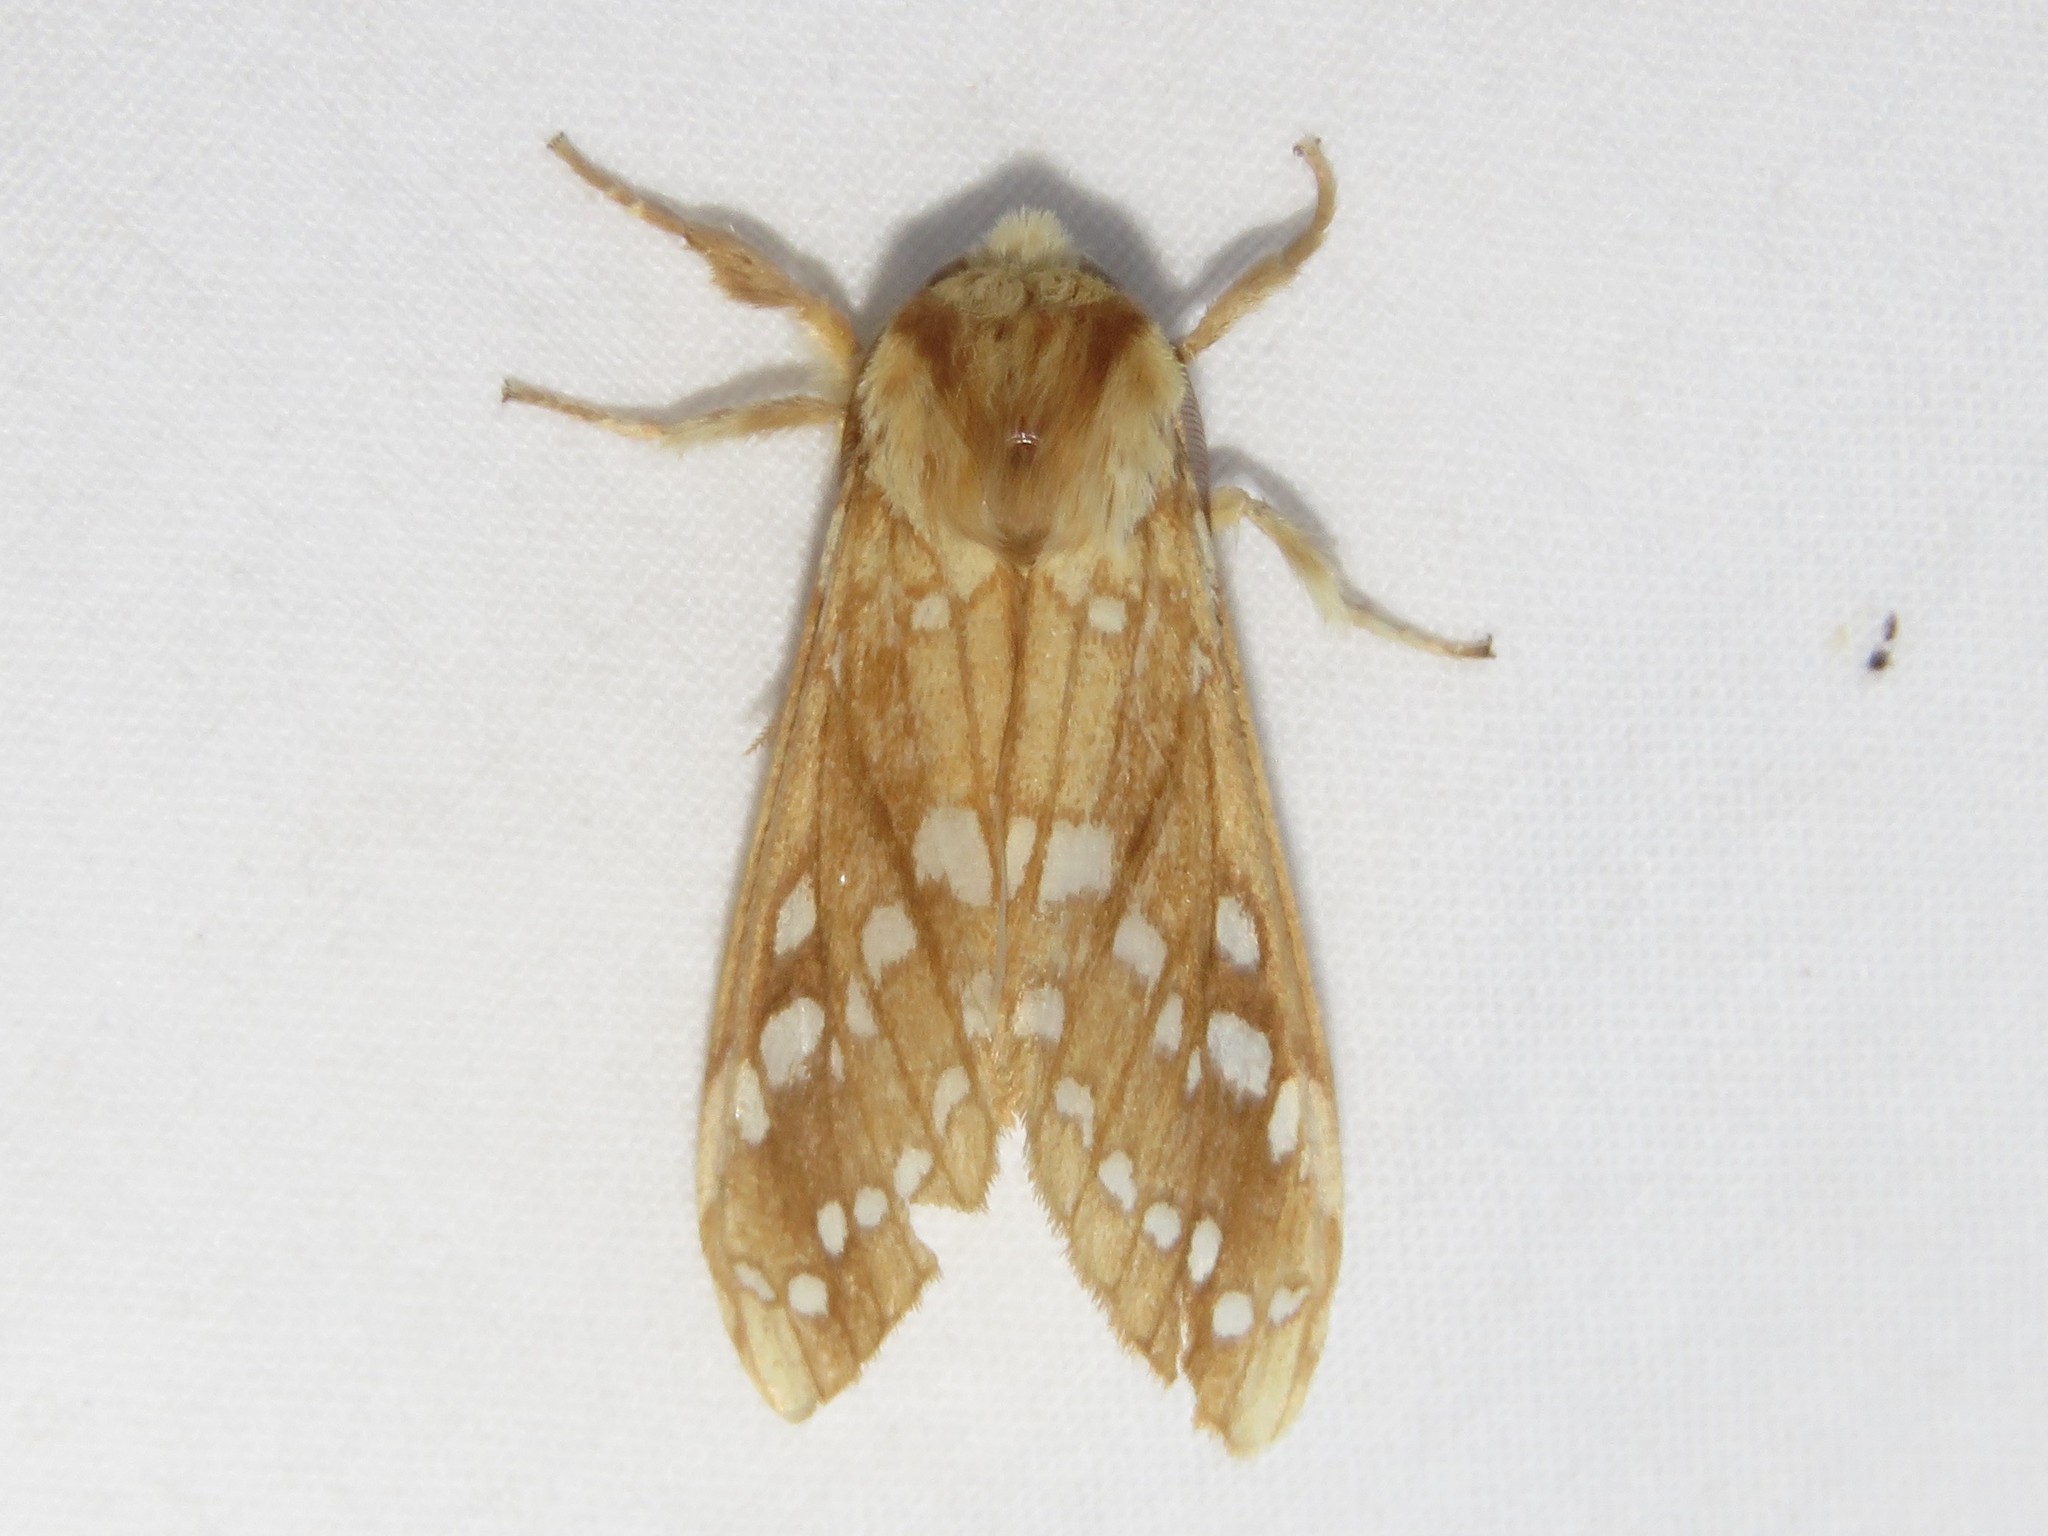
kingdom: Animalia
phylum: Arthropoda
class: Insecta
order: Lepidoptera
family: Erebidae
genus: Lophocampa
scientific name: Lophocampa caryae
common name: Hickory tussock moth
